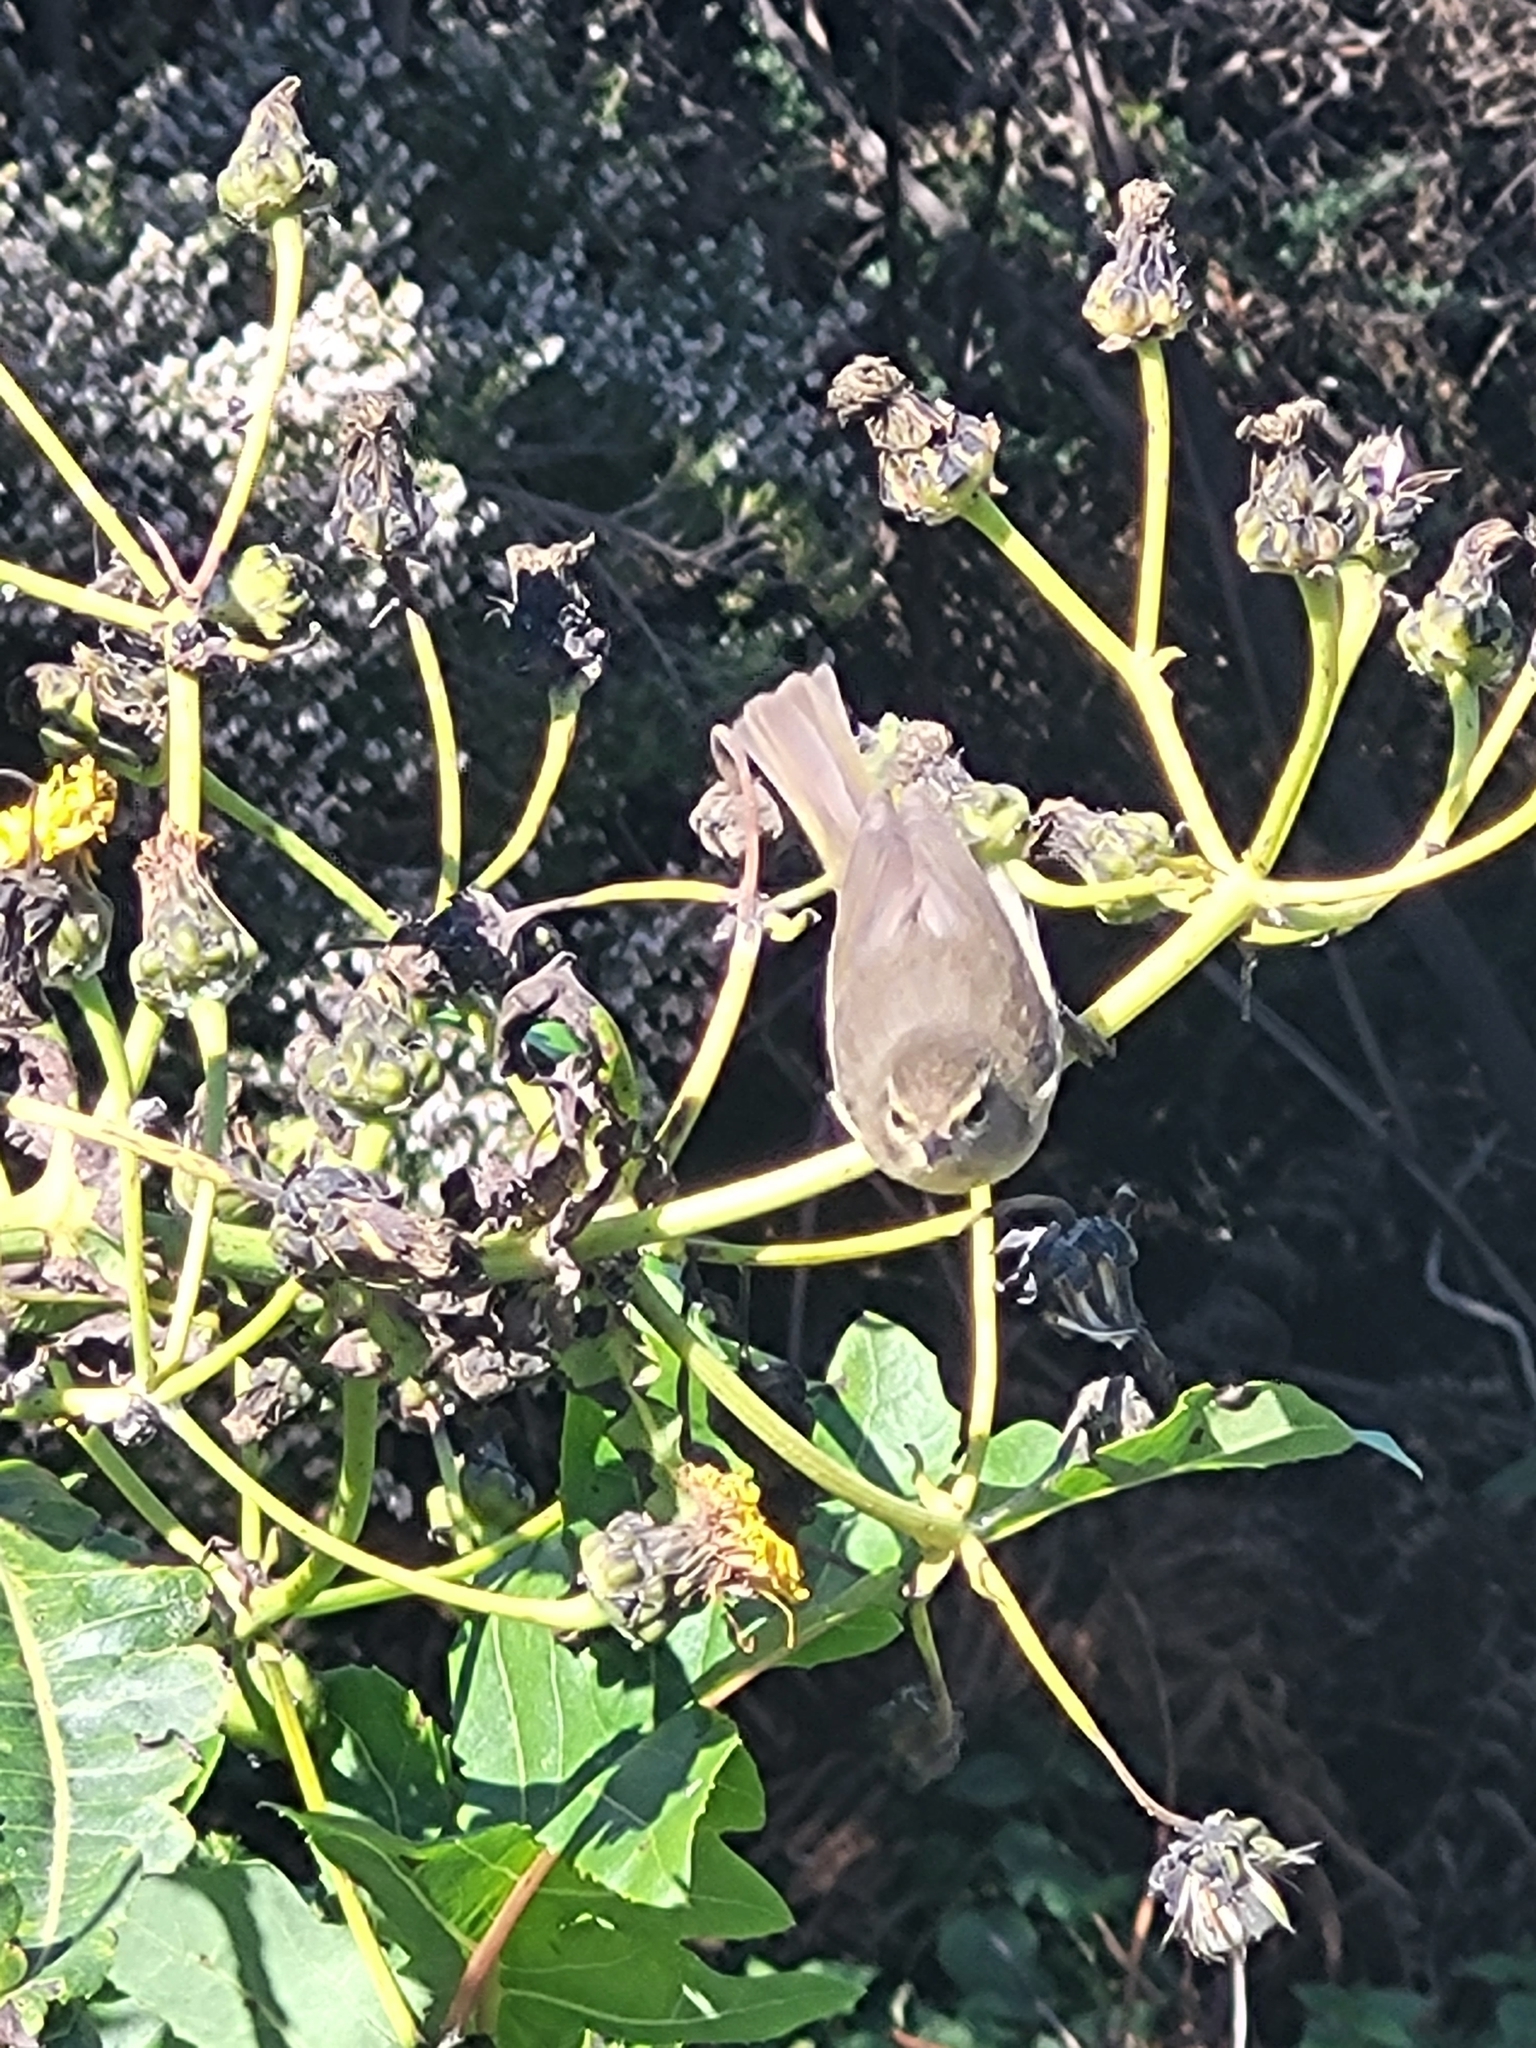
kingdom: Animalia
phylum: Chordata
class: Aves
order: Passeriformes
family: Phylloscopidae
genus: Phylloscopus
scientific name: Phylloscopus canariensis
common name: Canary islands chiffchaff
